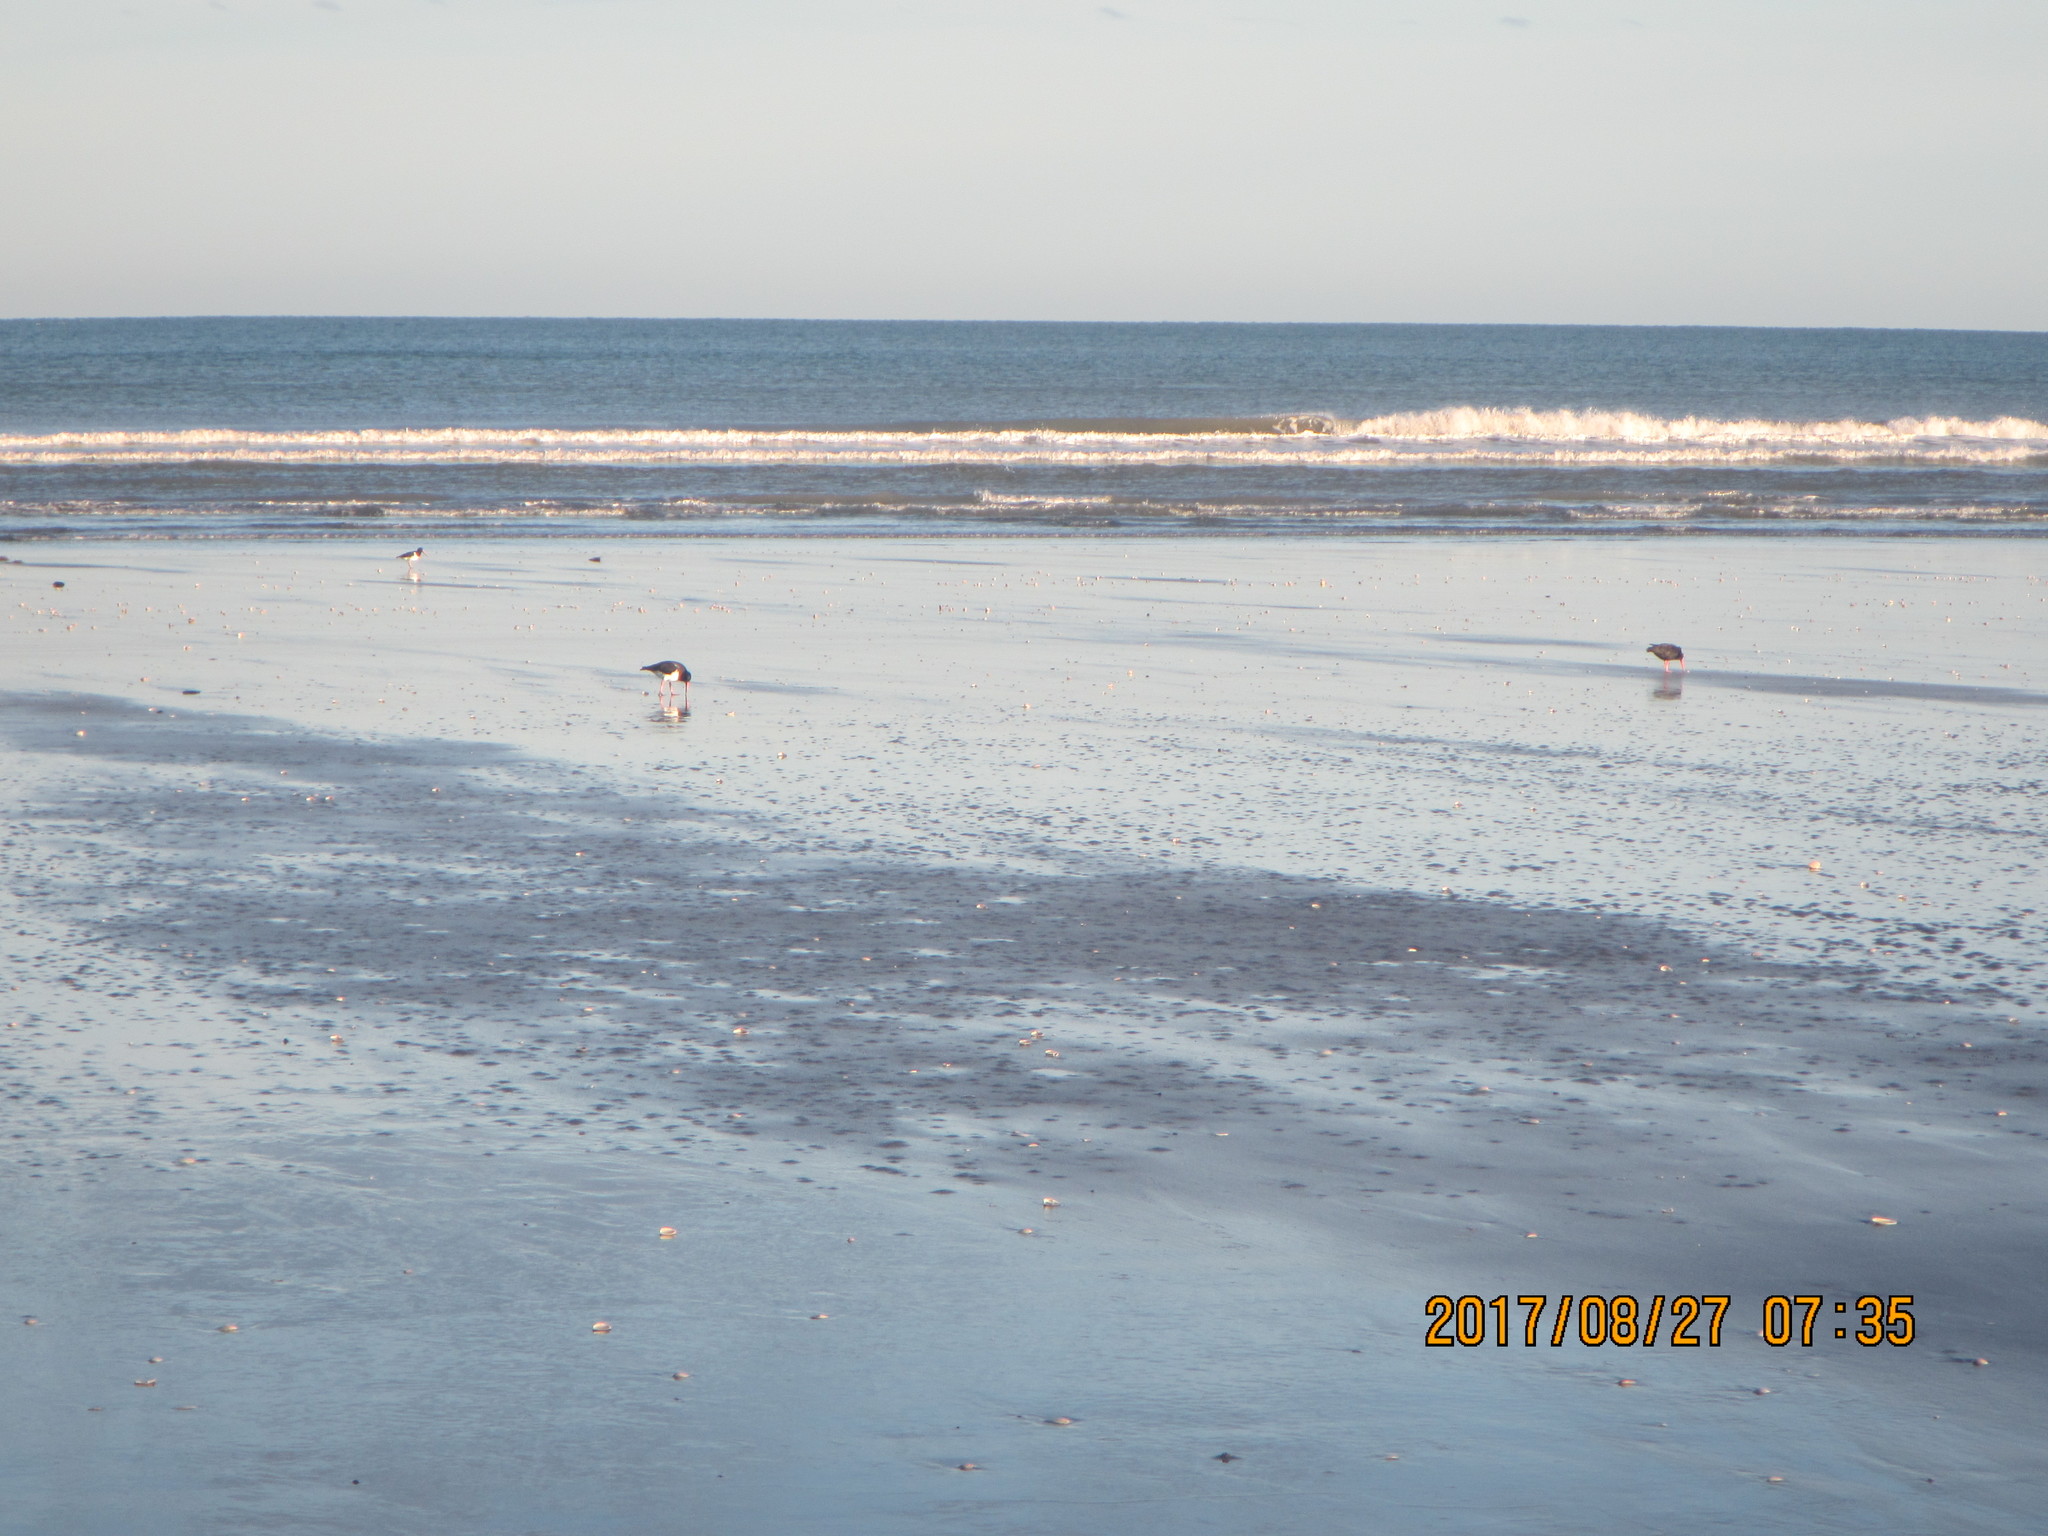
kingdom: Animalia
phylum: Chordata
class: Aves
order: Charadriiformes
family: Haematopodidae
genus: Haematopus
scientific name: Haematopus finschi
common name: South island oystercatcher
